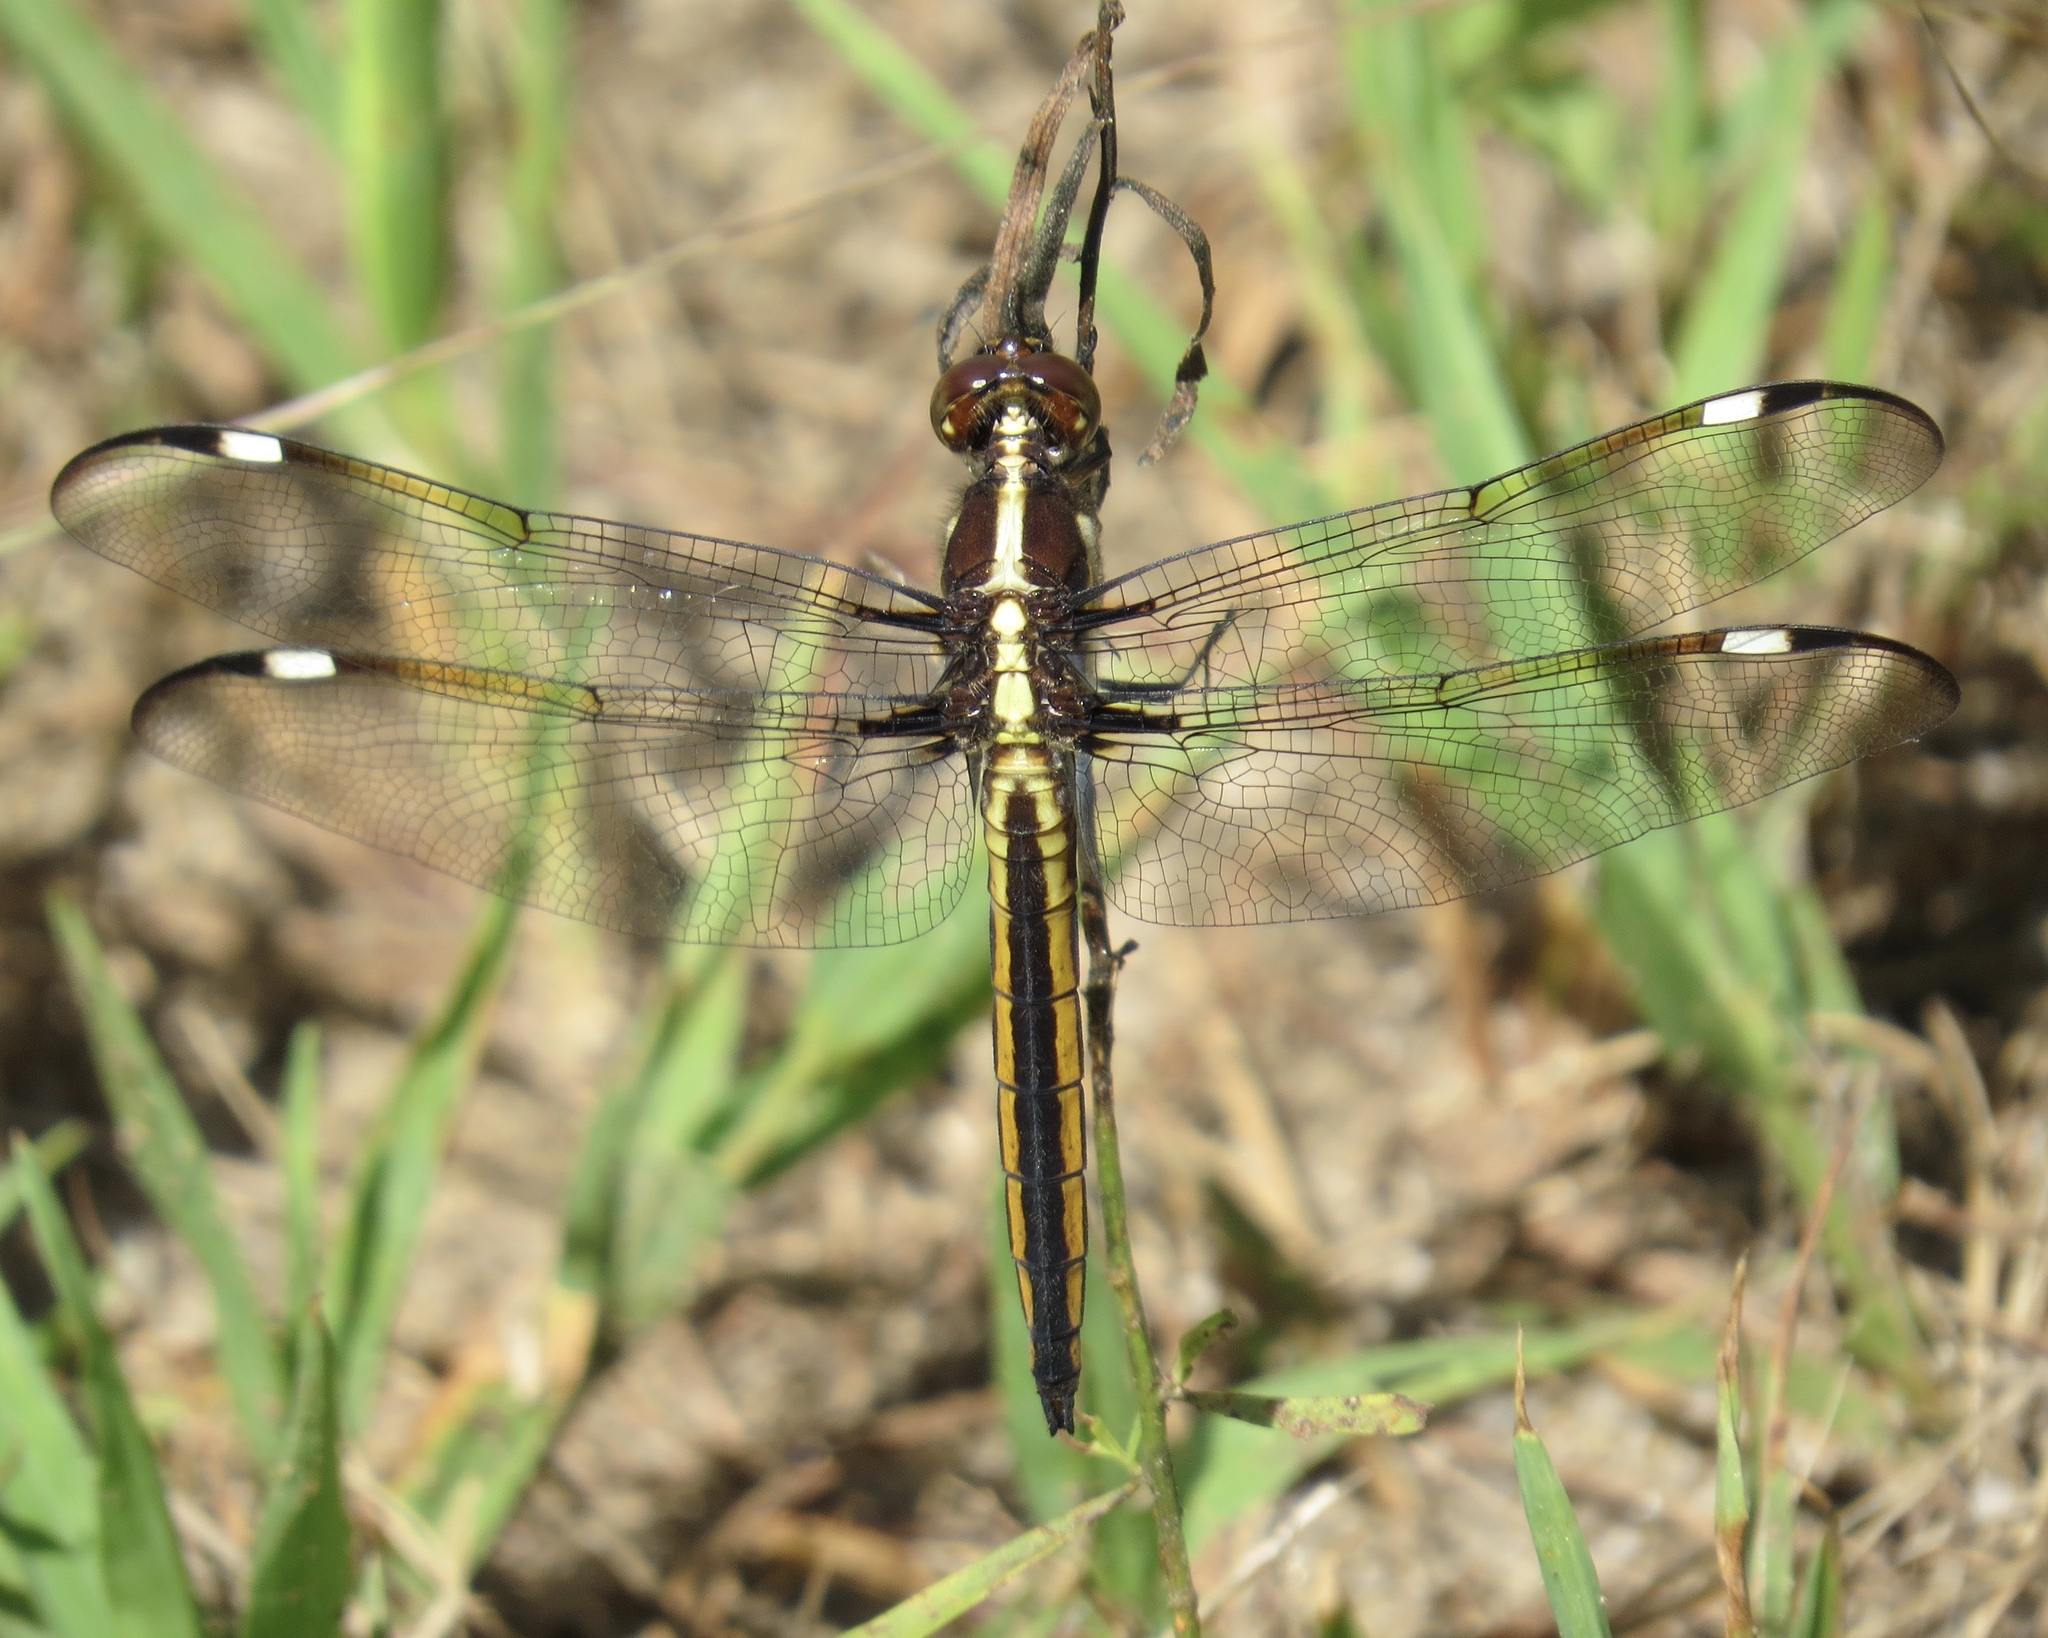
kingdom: Animalia
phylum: Arthropoda
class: Insecta
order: Odonata
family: Libellulidae
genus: Libellula
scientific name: Libellula cyanea
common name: Spangled skimmer
